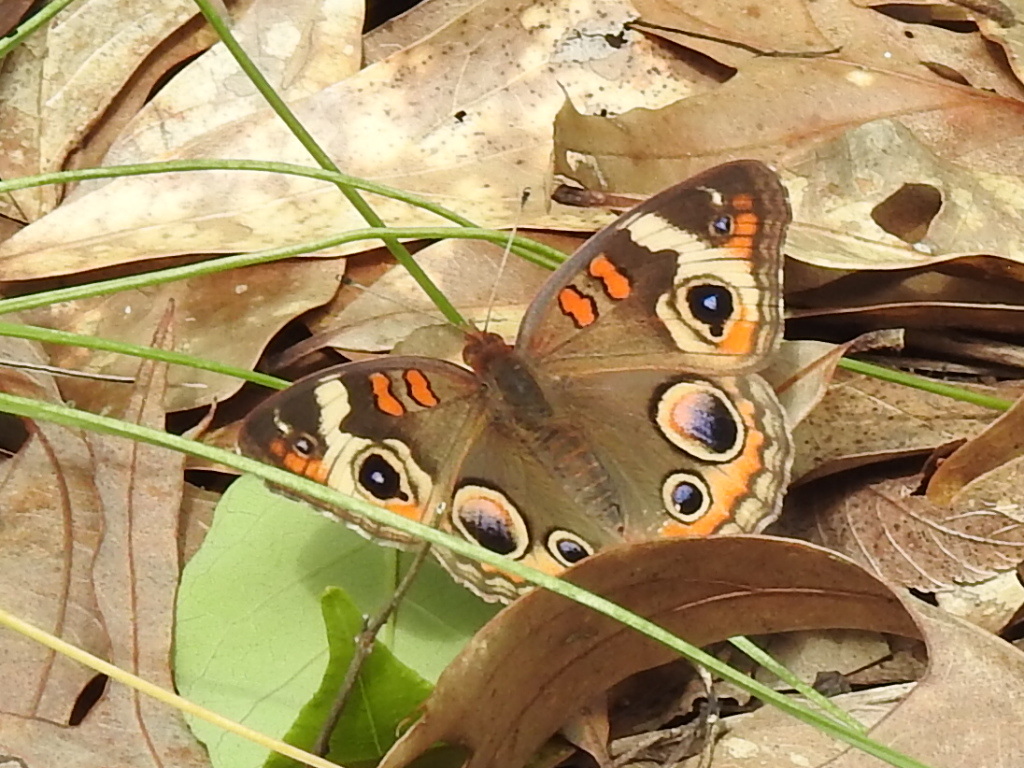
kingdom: Animalia
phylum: Arthropoda
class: Insecta
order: Lepidoptera
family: Nymphalidae
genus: Junonia
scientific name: Junonia coenia
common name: Common buckeye
